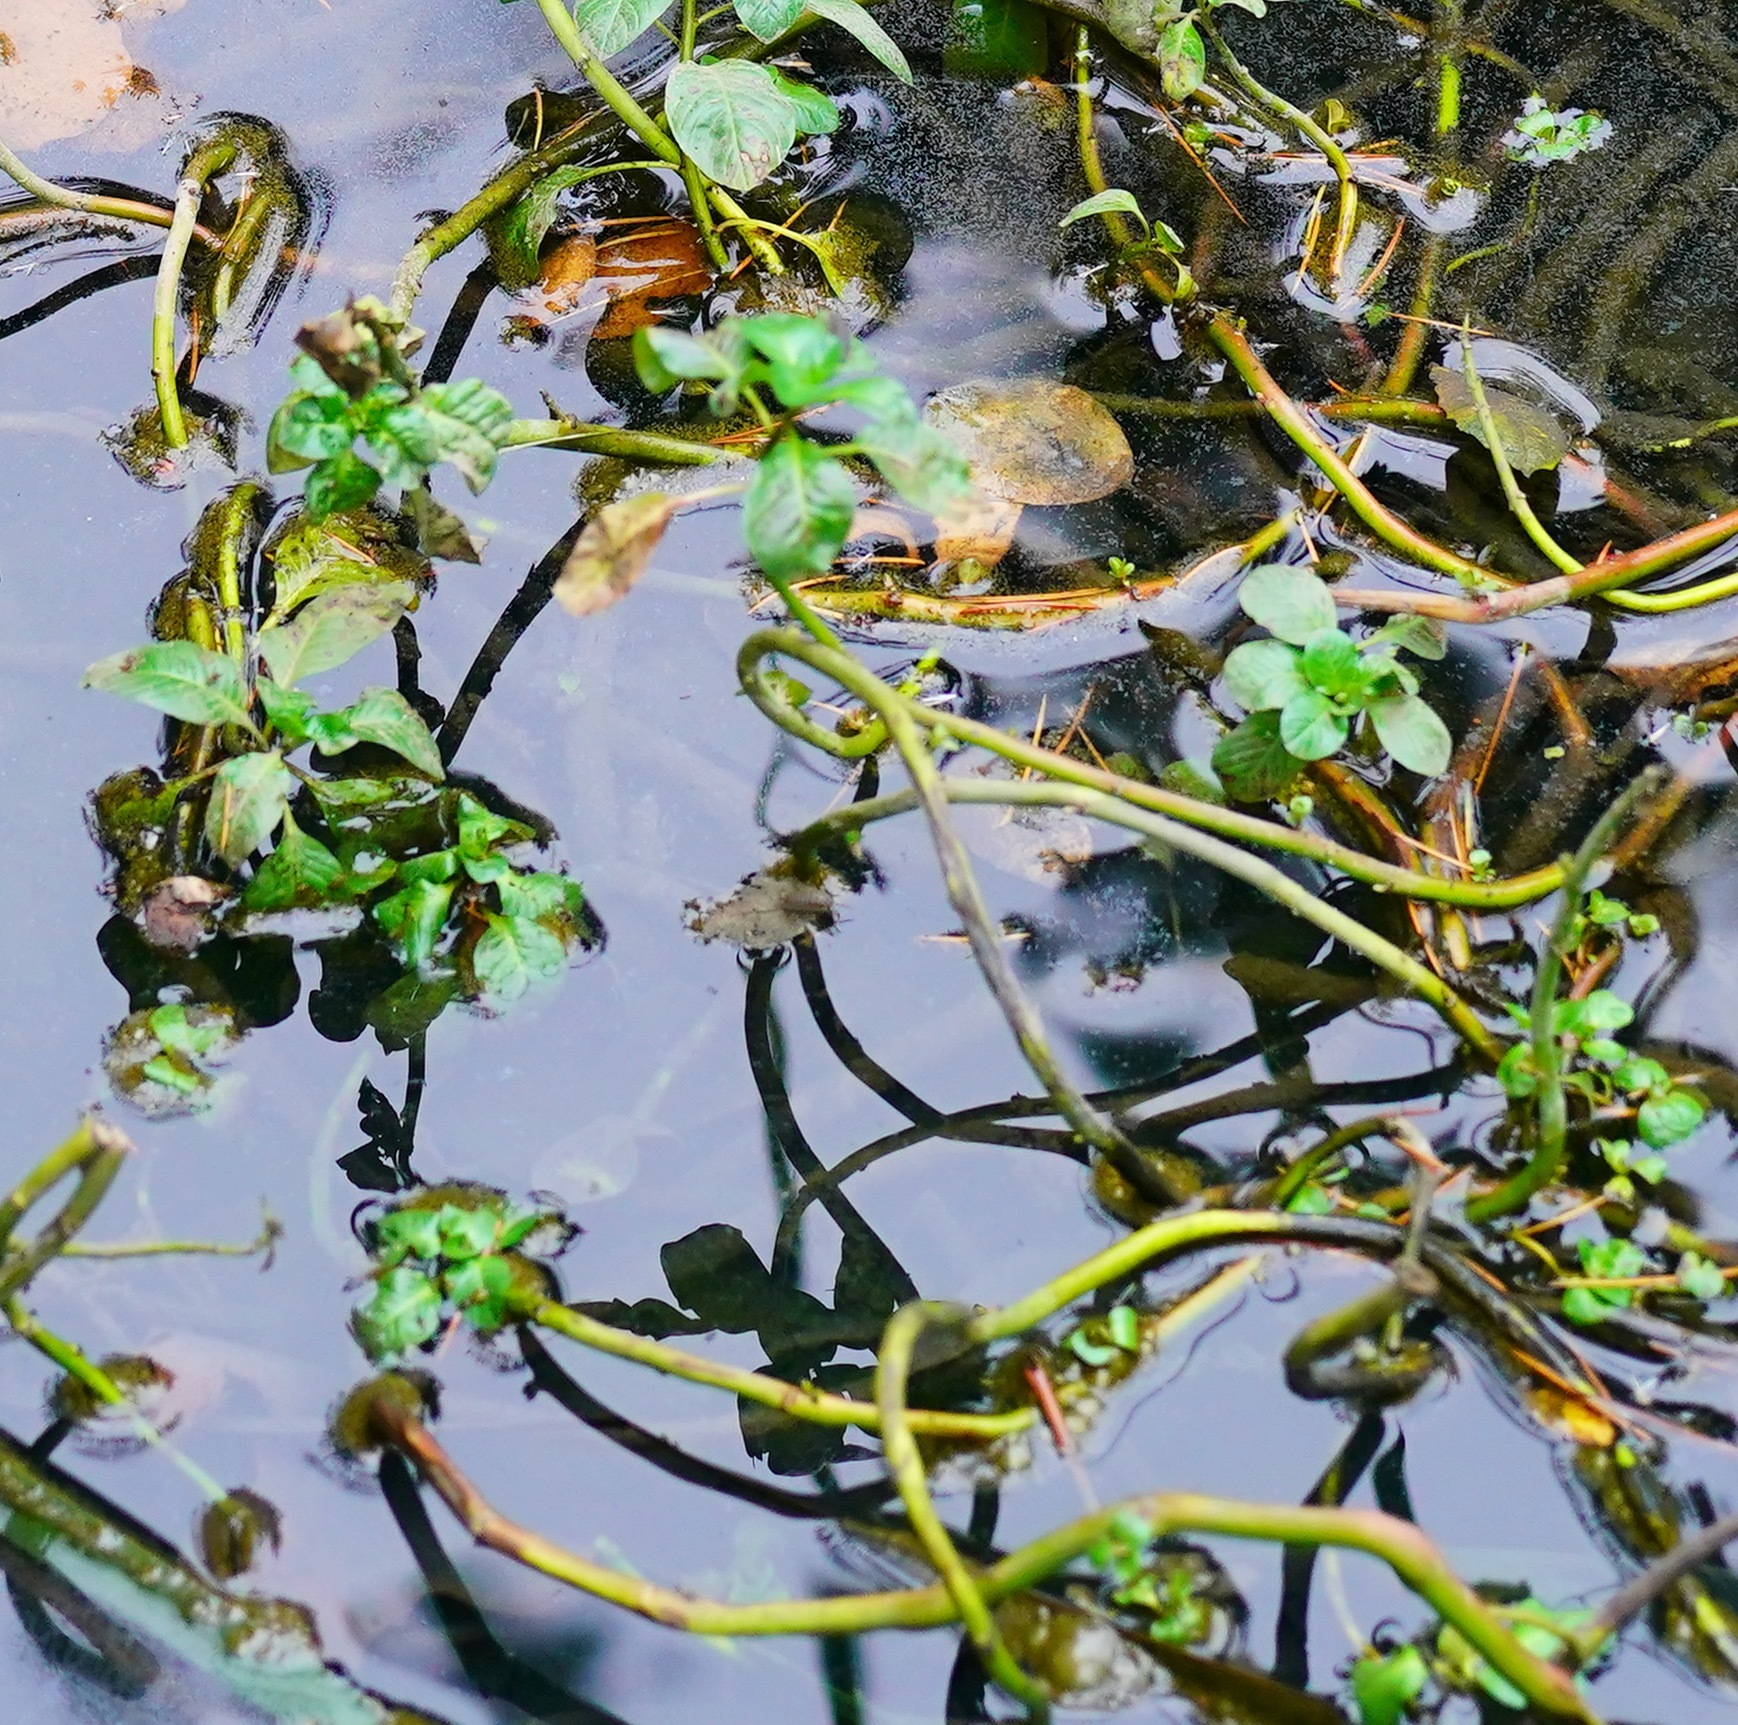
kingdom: Plantae
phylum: Tracheophyta
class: Magnoliopsida
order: Myrtales
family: Onagraceae
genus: Ludwigia
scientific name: Ludwigia peploides
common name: Floating primrose-willow
